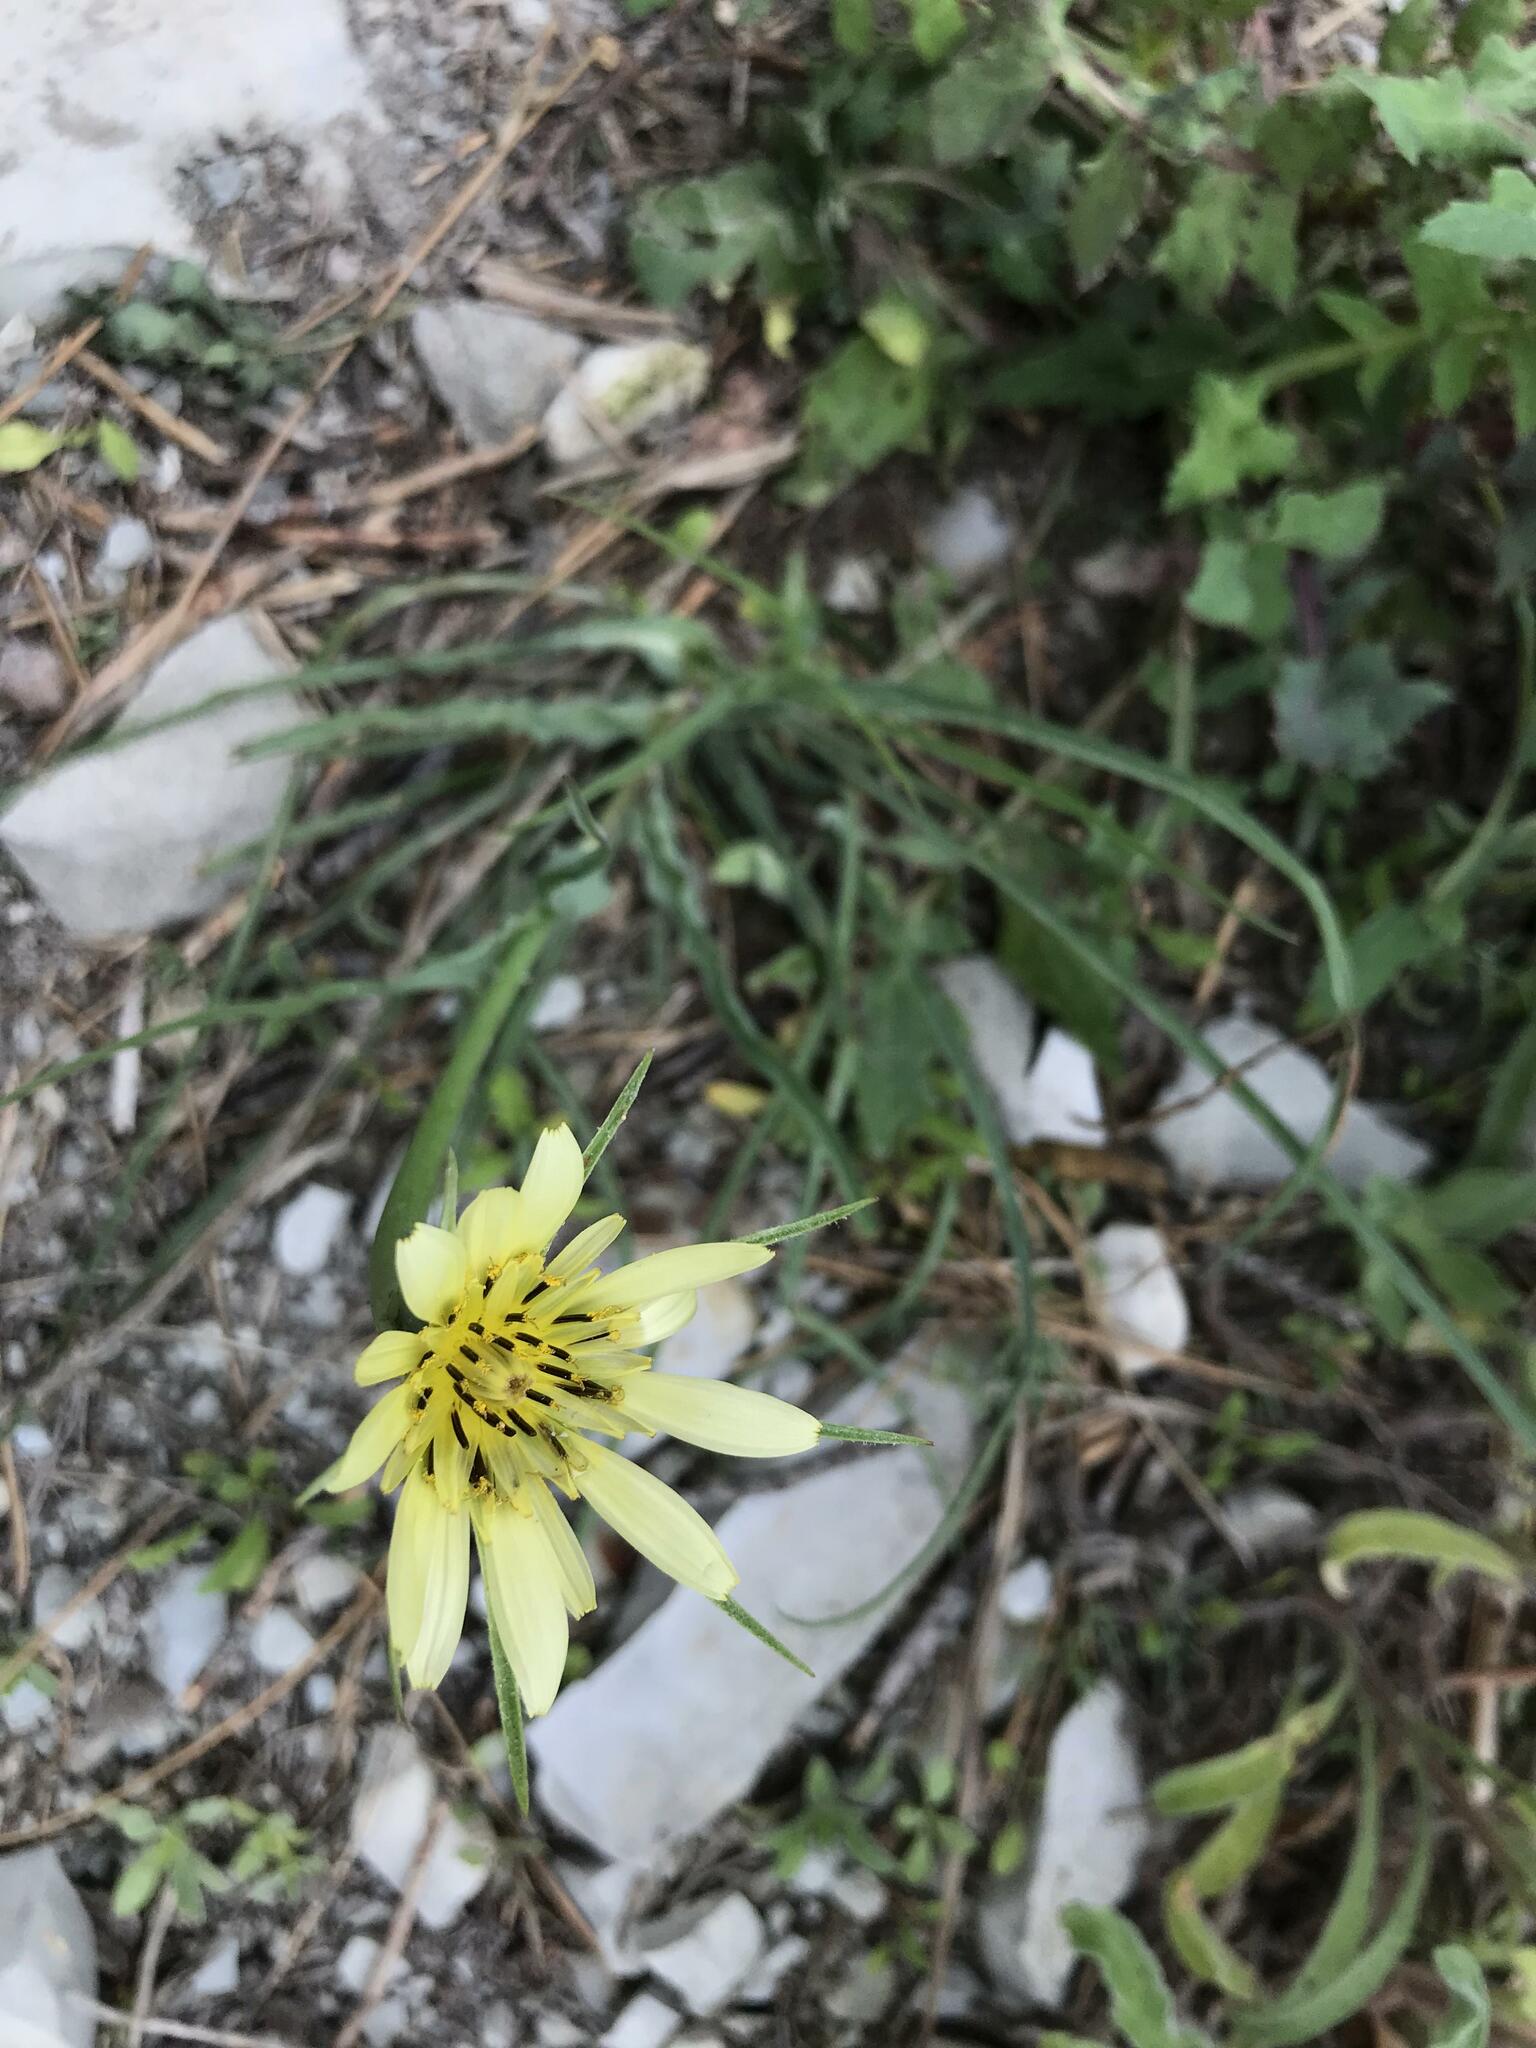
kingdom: Plantae
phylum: Tracheophyta
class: Magnoliopsida
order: Asterales
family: Asteraceae
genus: Tragopogon
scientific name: Tragopogon dubius
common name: Yellow salsify
